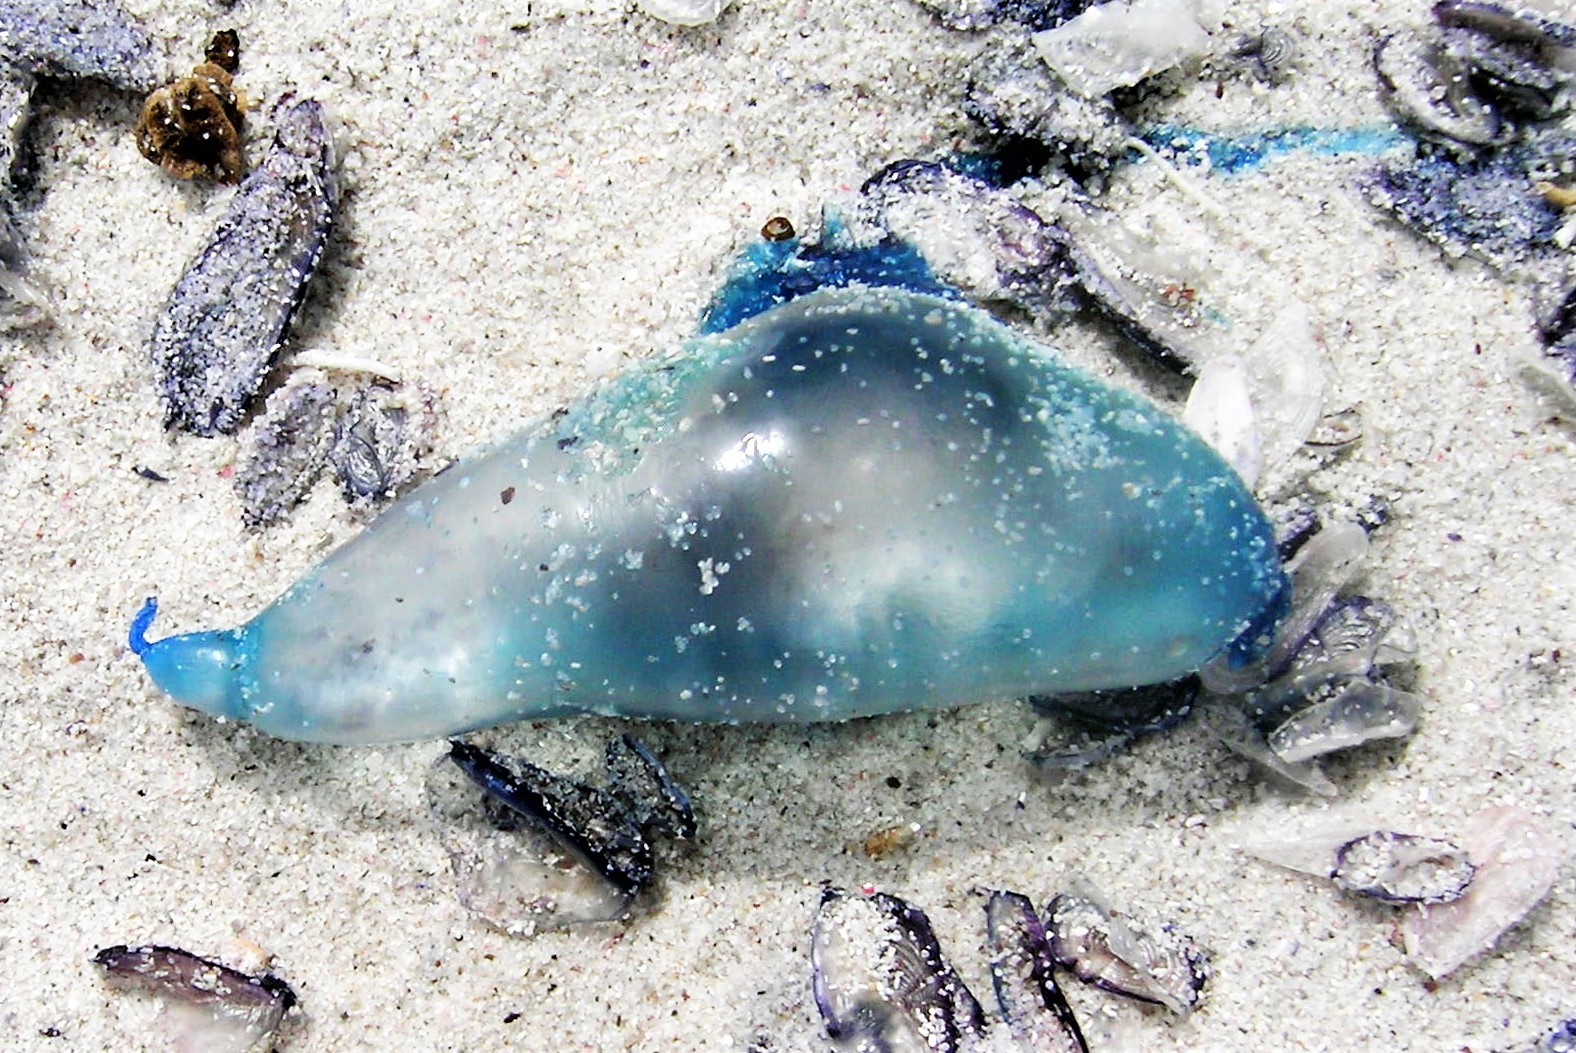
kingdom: Animalia
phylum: Cnidaria
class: Hydrozoa
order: Siphonophorae
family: Physaliidae
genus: Physalia
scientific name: Physalia physalis
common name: Portuguese man-of-war
